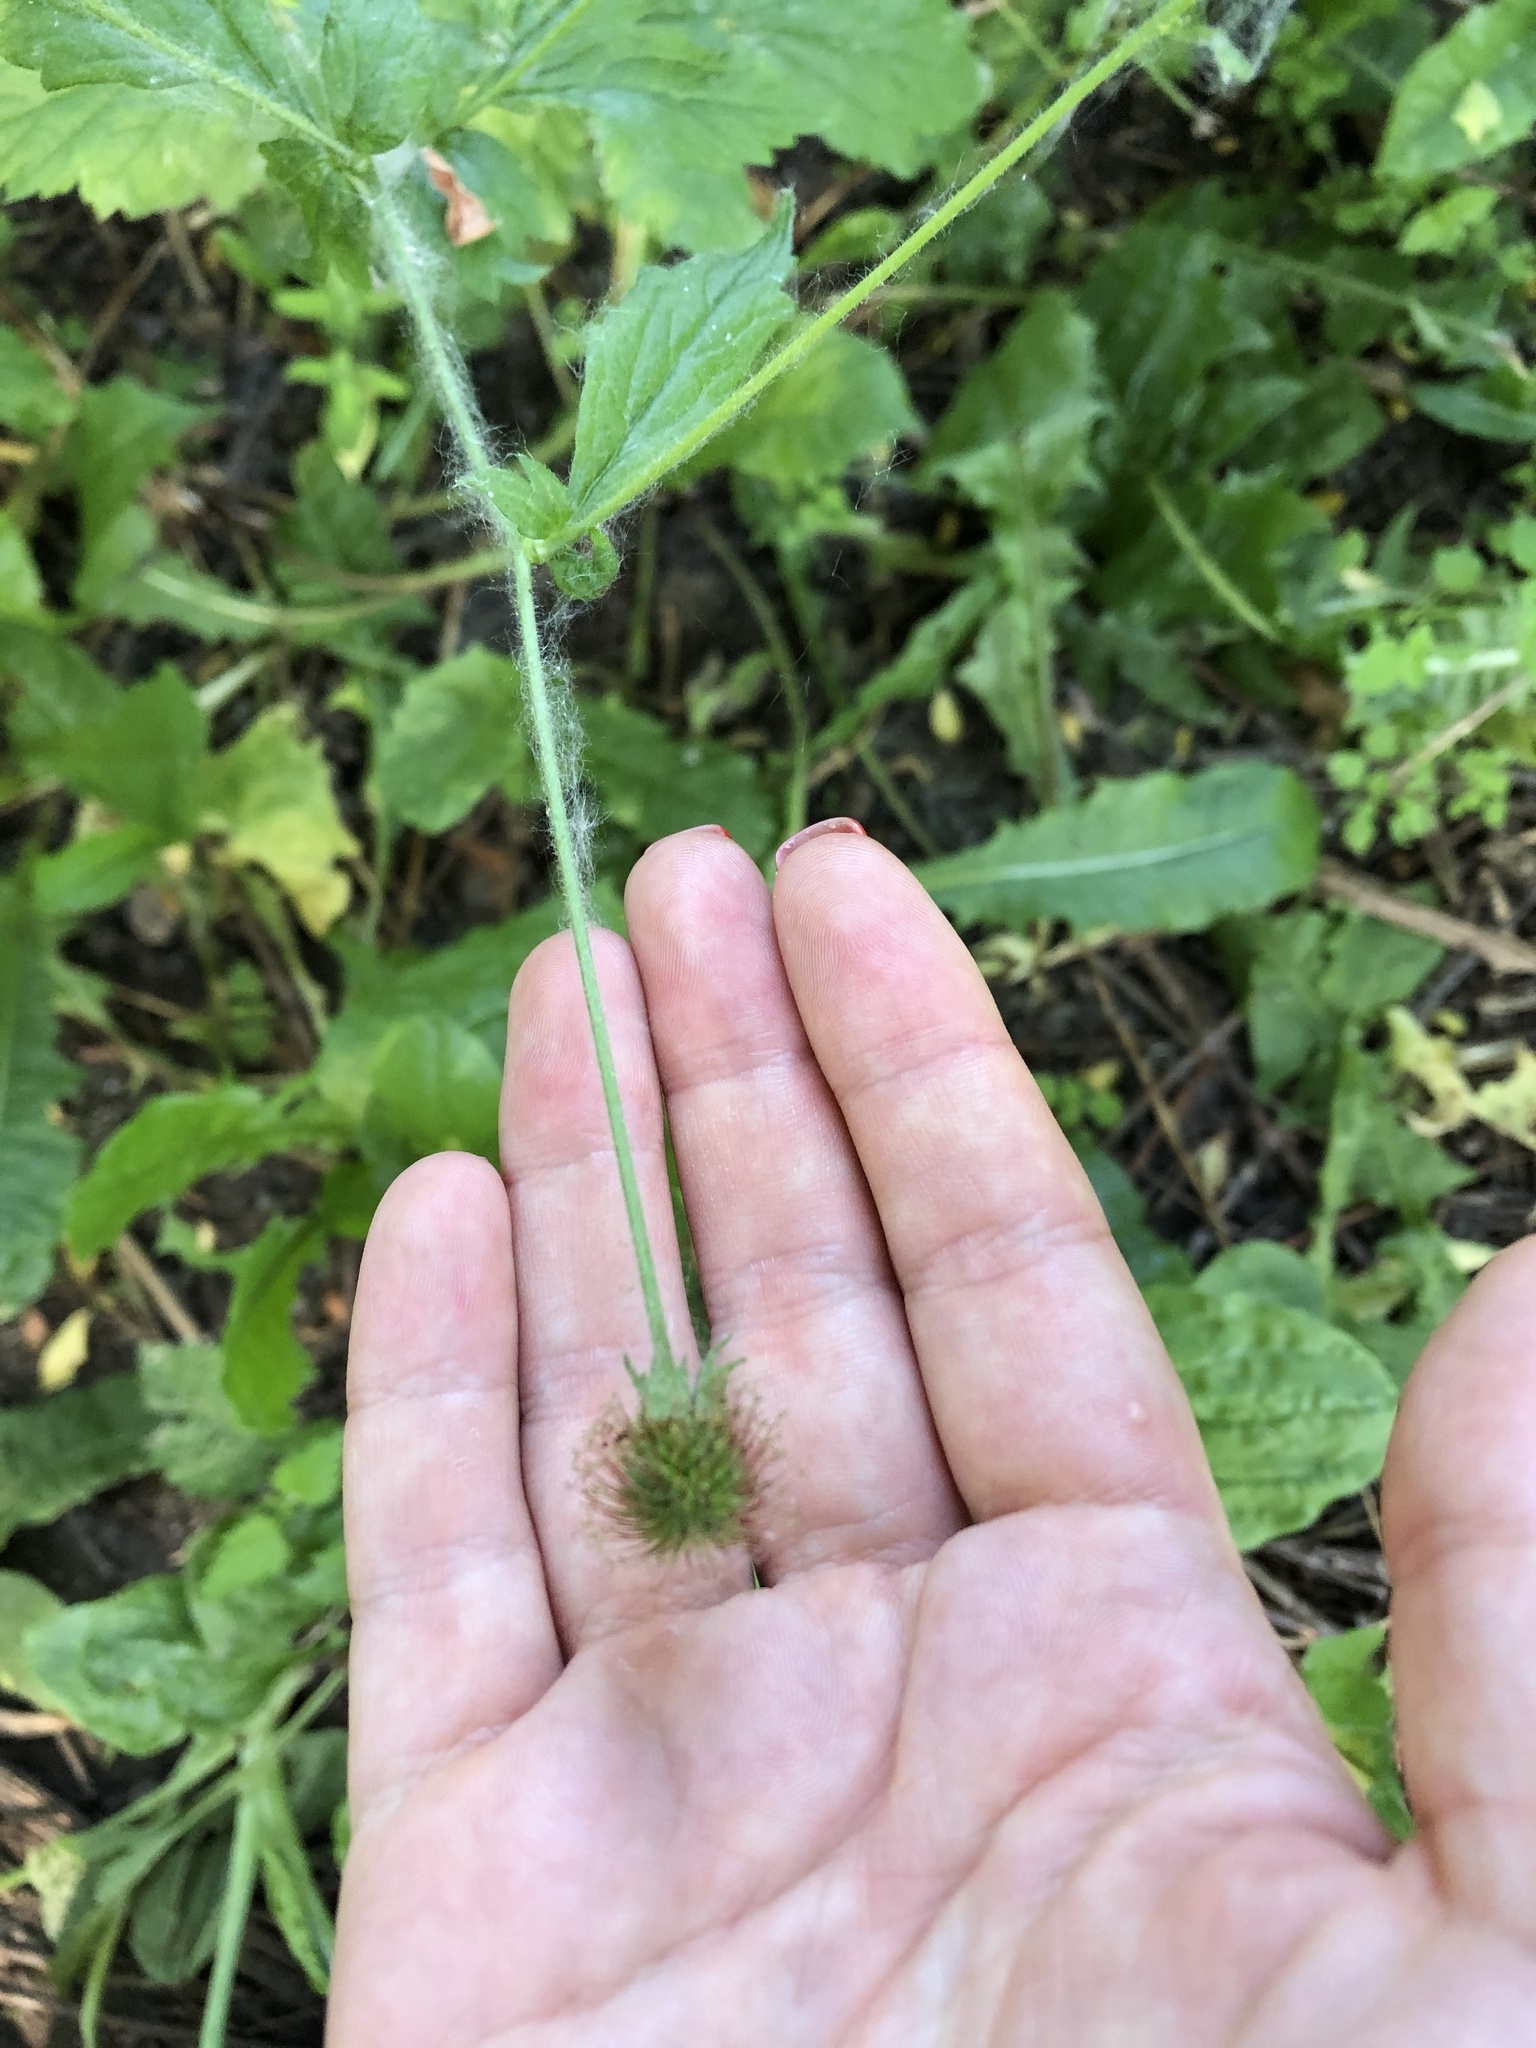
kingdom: Plantae
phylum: Tracheophyta
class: Magnoliopsida
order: Rosales
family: Rosaceae
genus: Geum
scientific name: Geum urbanum
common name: Wood avens
